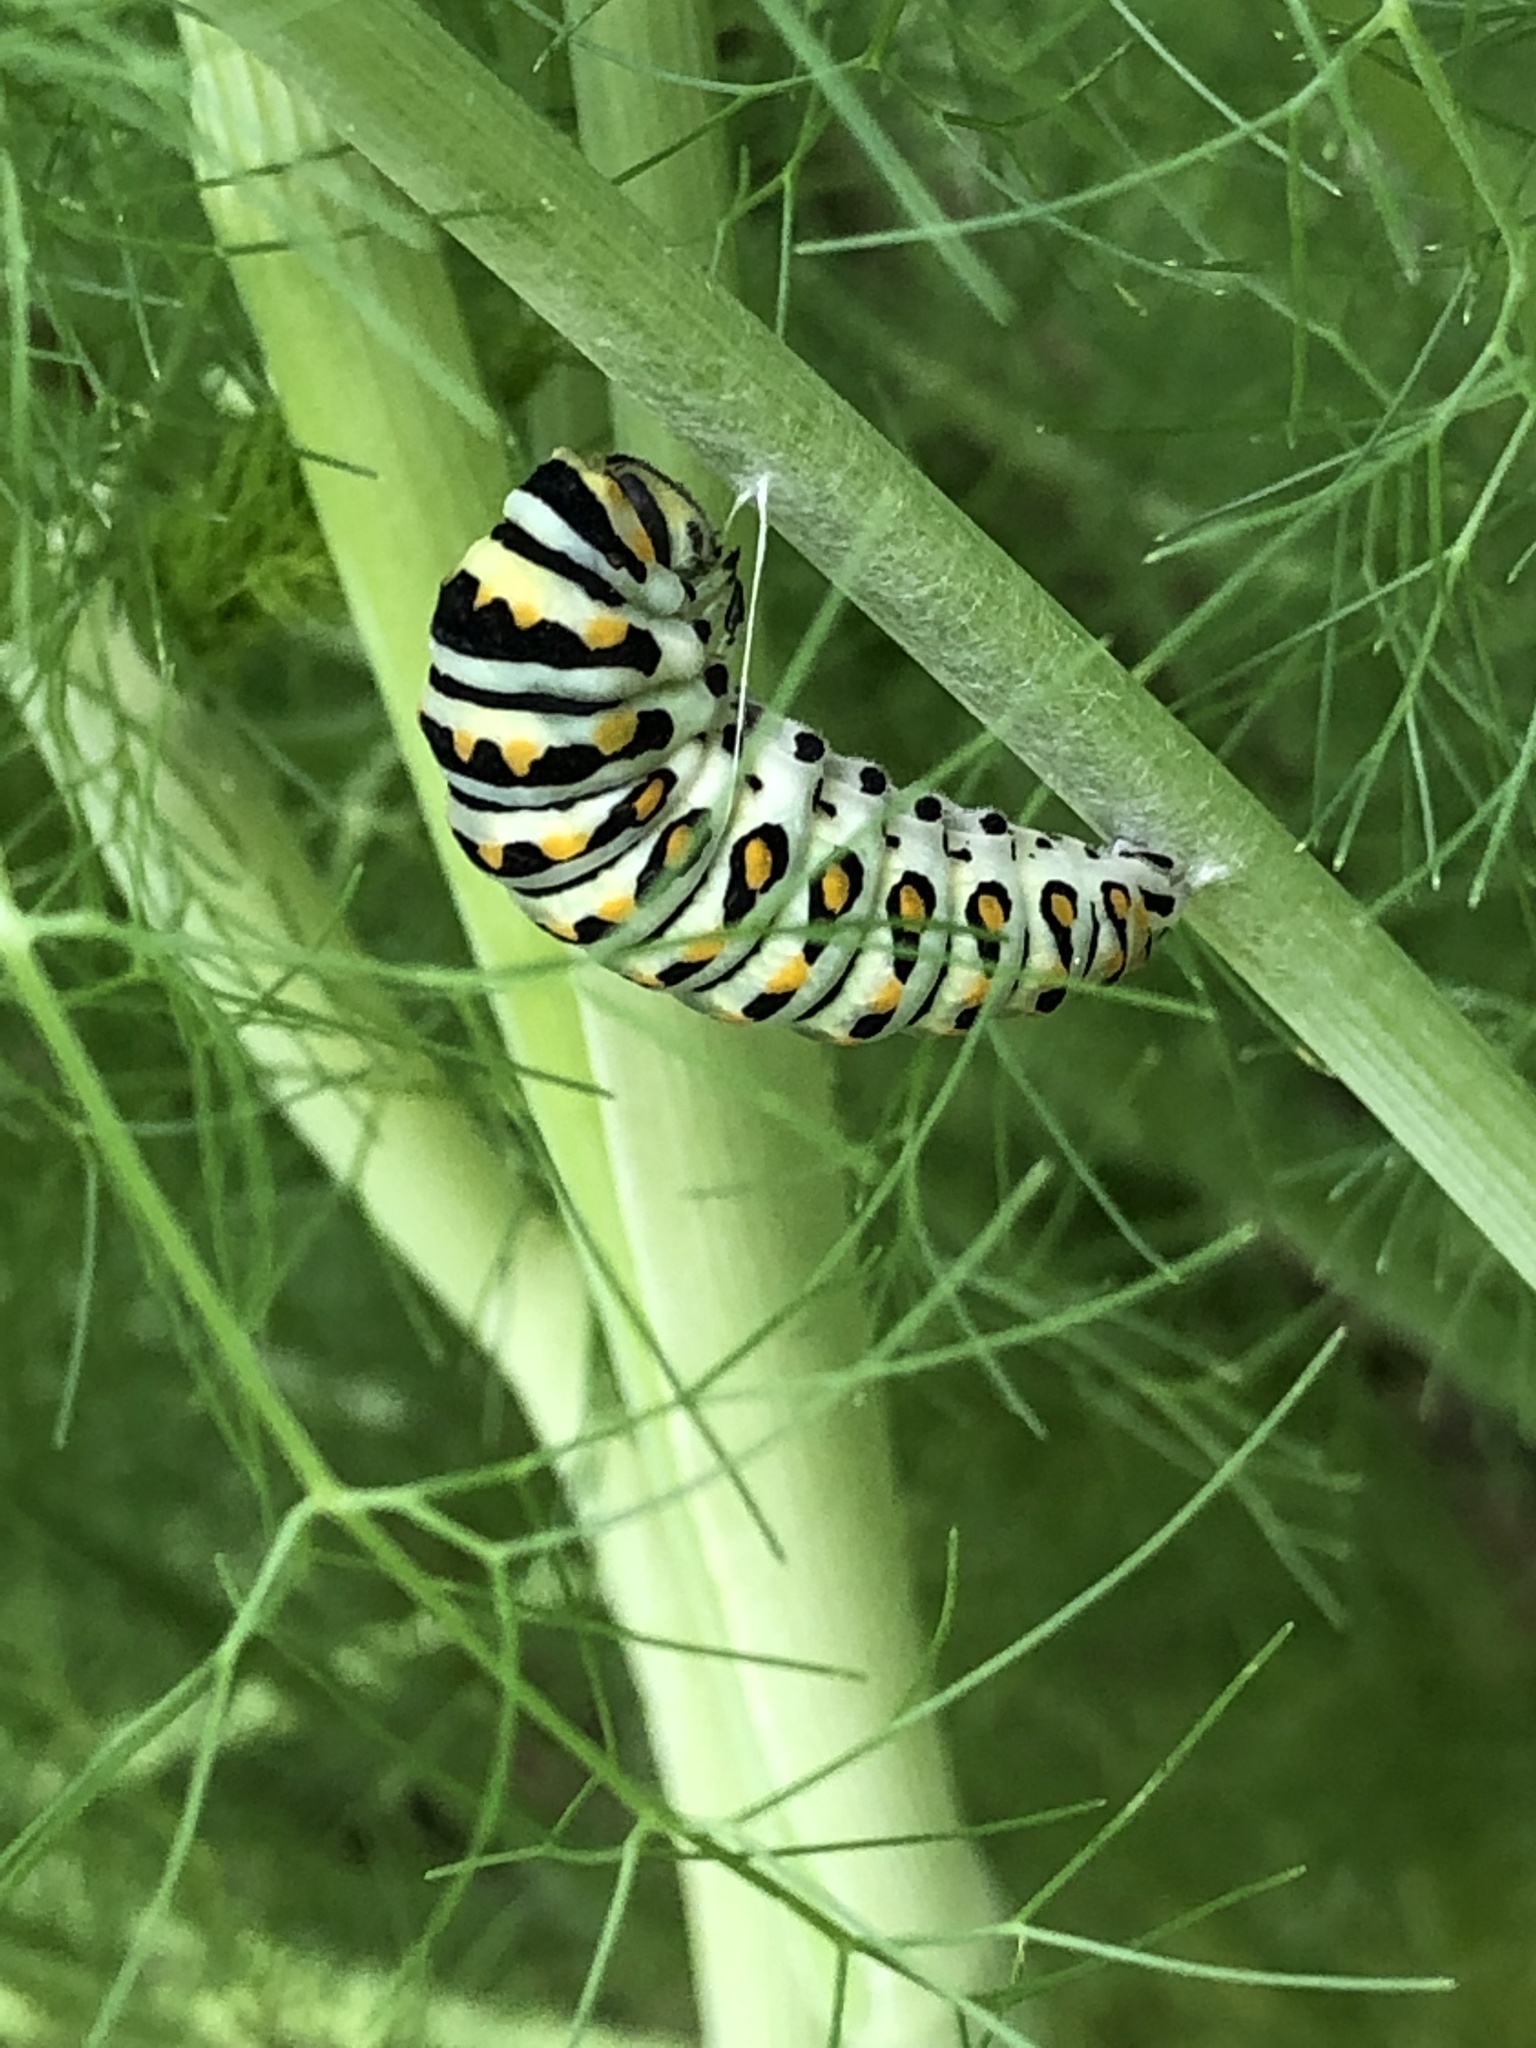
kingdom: Animalia
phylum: Arthropoda
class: Insecta
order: Lepidoptera
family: Papilionidae
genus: Papilio
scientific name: Papilio polyxenes
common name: Black swallowtail
